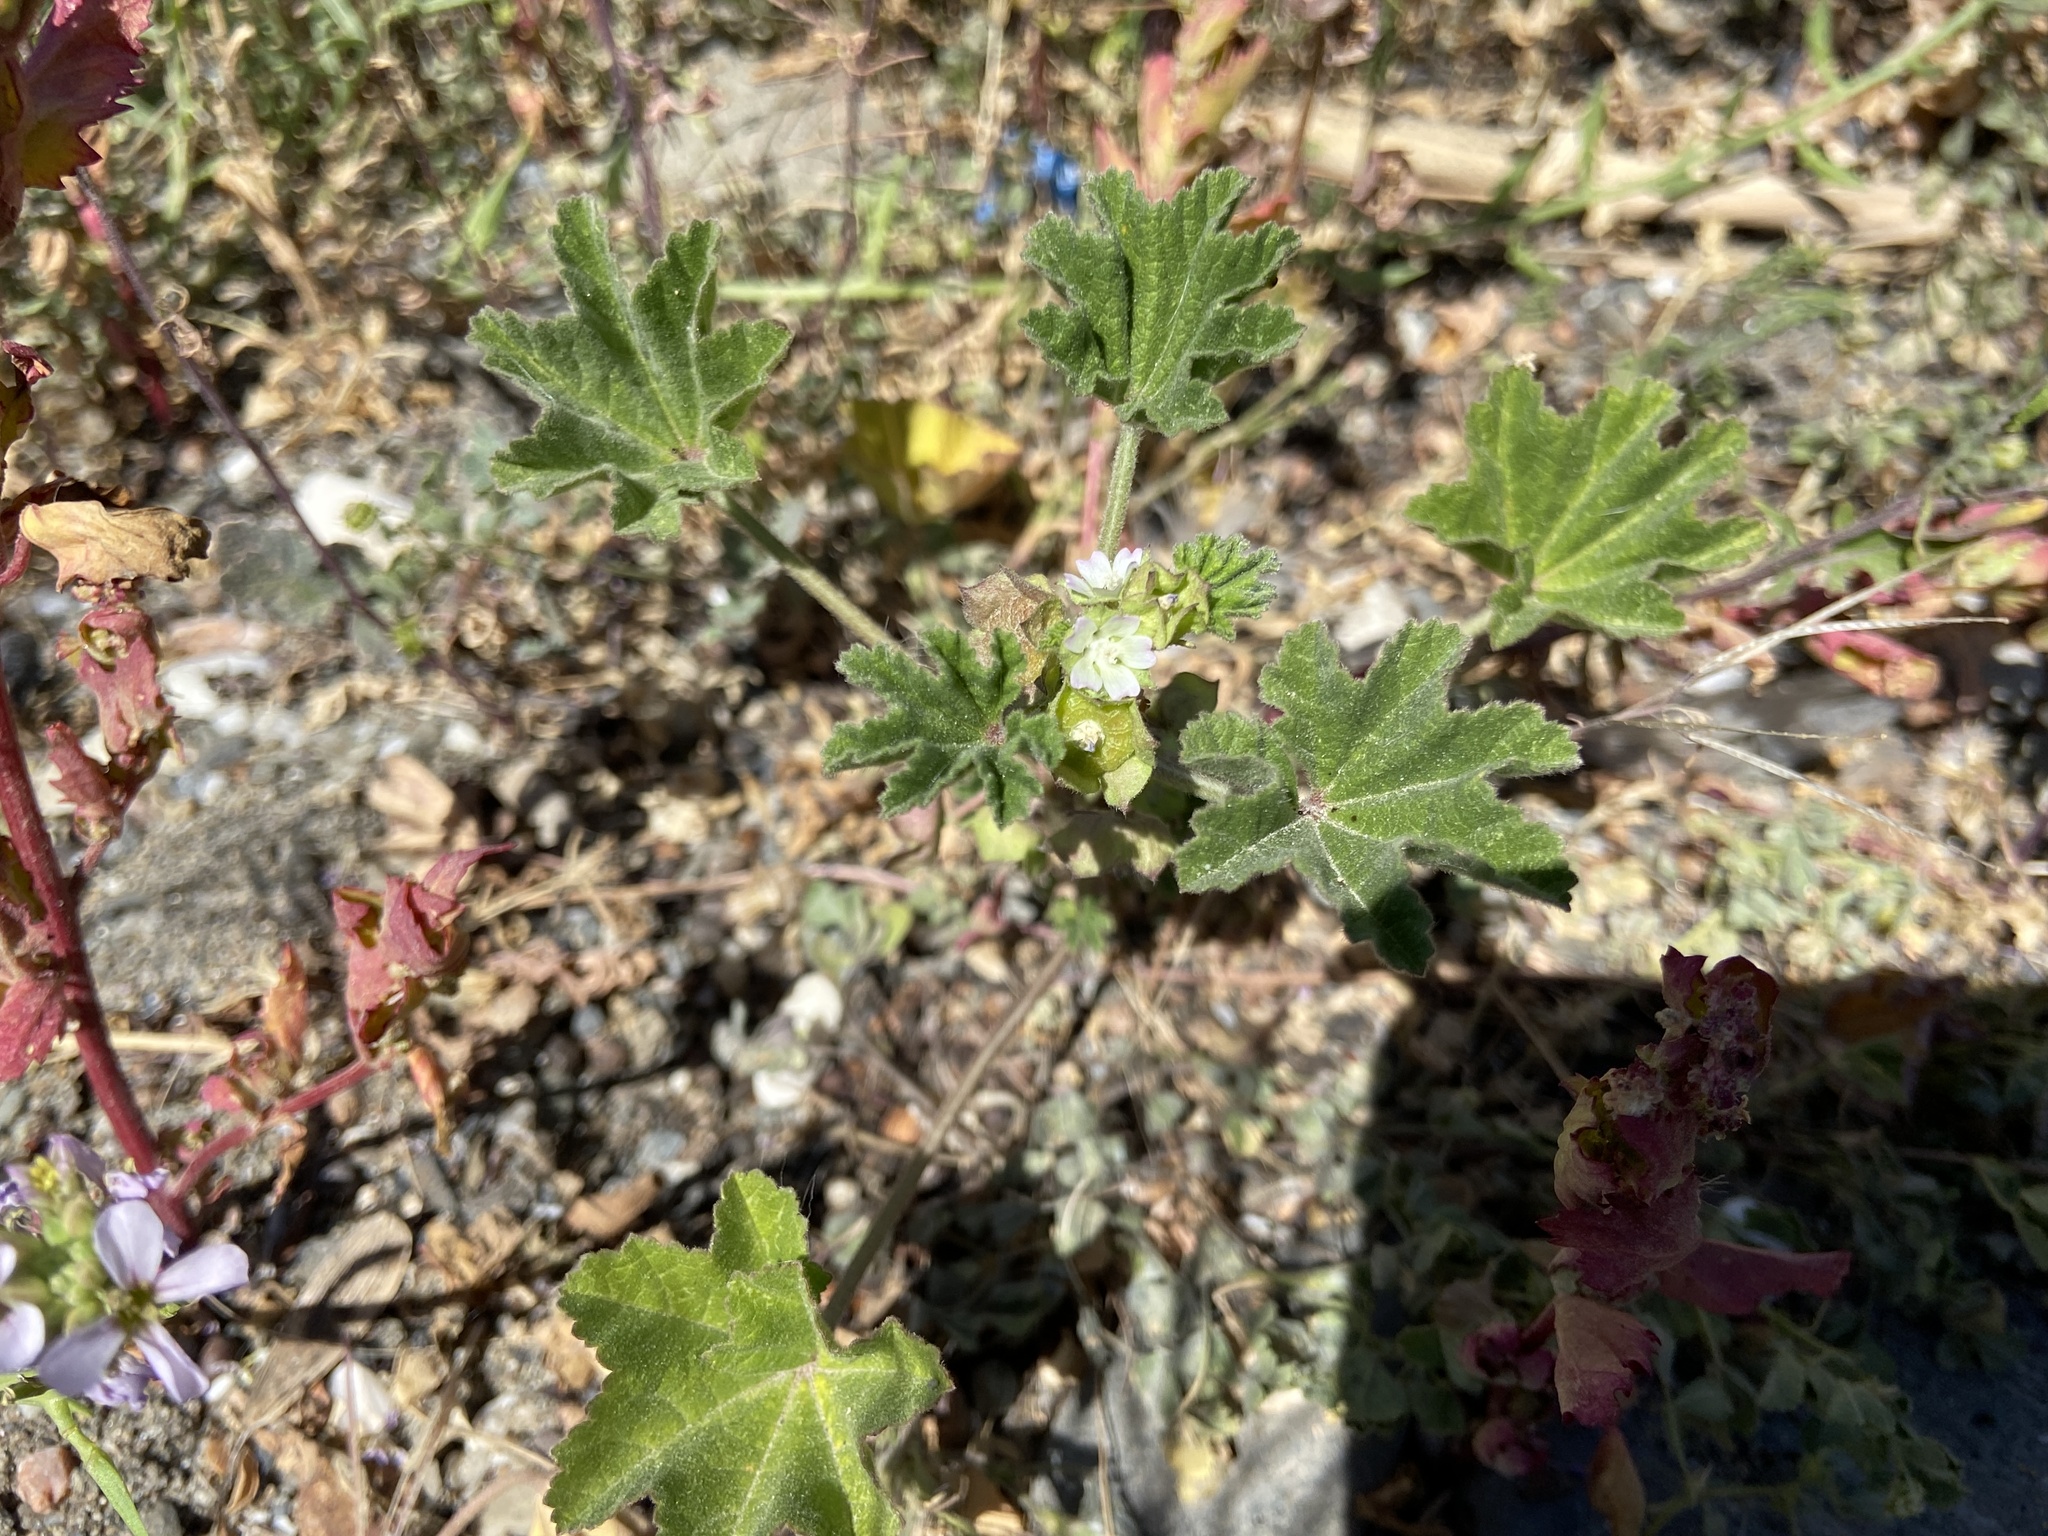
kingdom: Plantae
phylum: Tracheophyta
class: Magnoliopsida
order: Malvales
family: Malvaceae
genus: Malva
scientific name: Malva parviflora
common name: Least mallow
